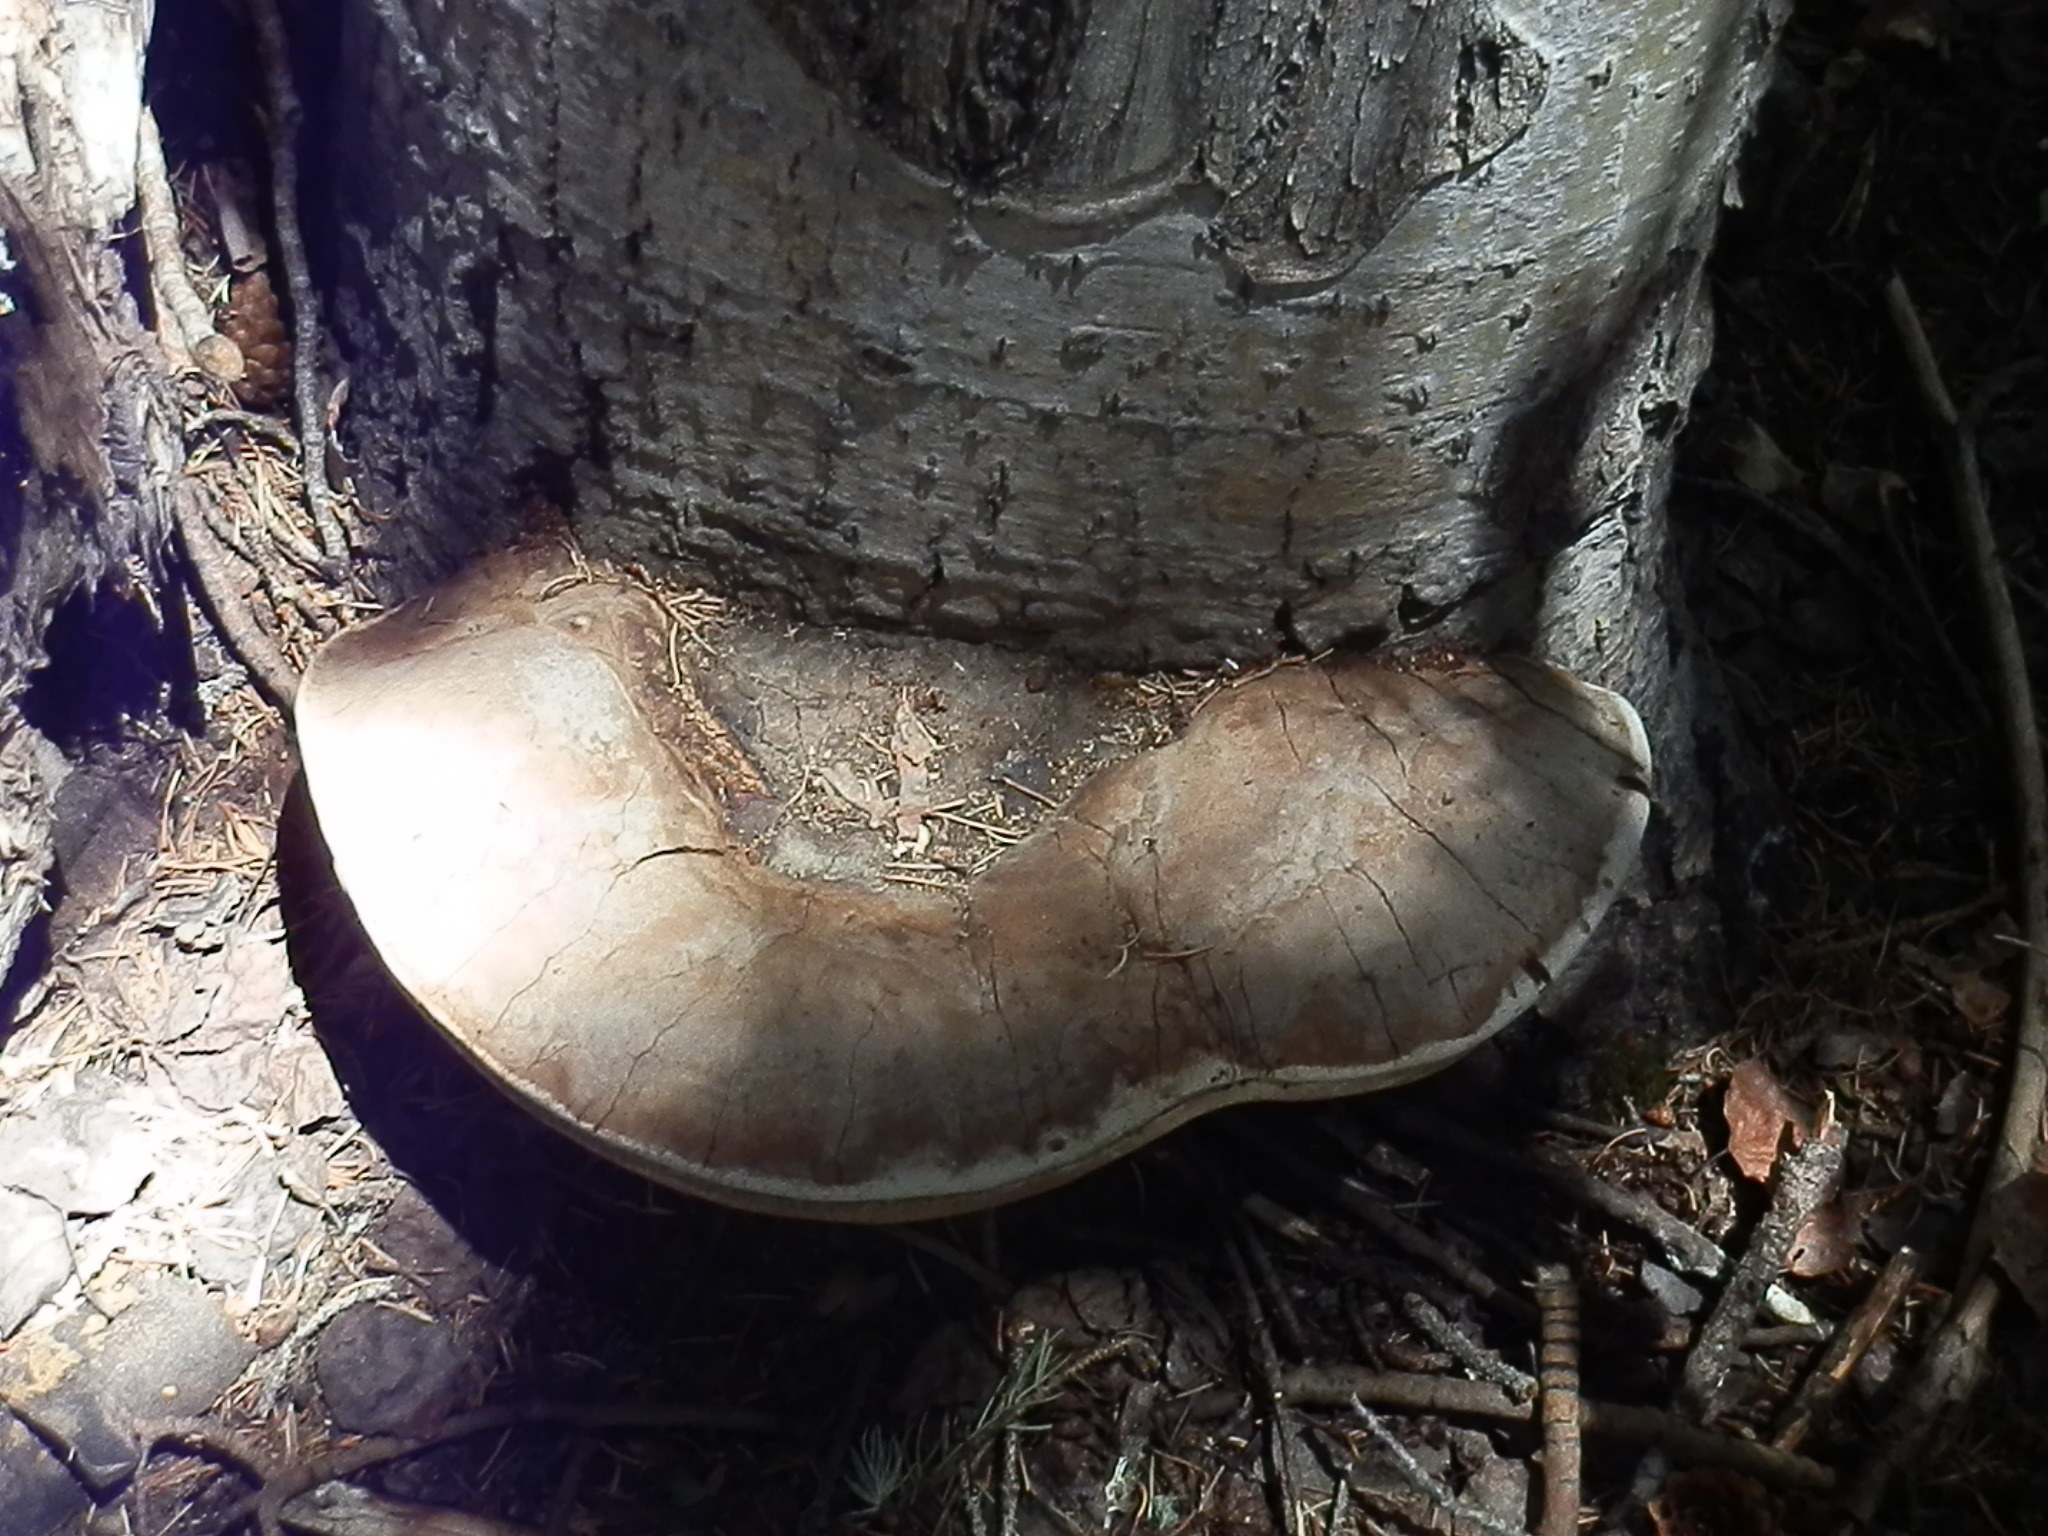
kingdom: Fungi
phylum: Basidiomycota
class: Agaricomycetes
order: Polyporales
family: Polyporaceae
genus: Ganoderma
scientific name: Ganoderma applanatum
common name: Artist's bracket
